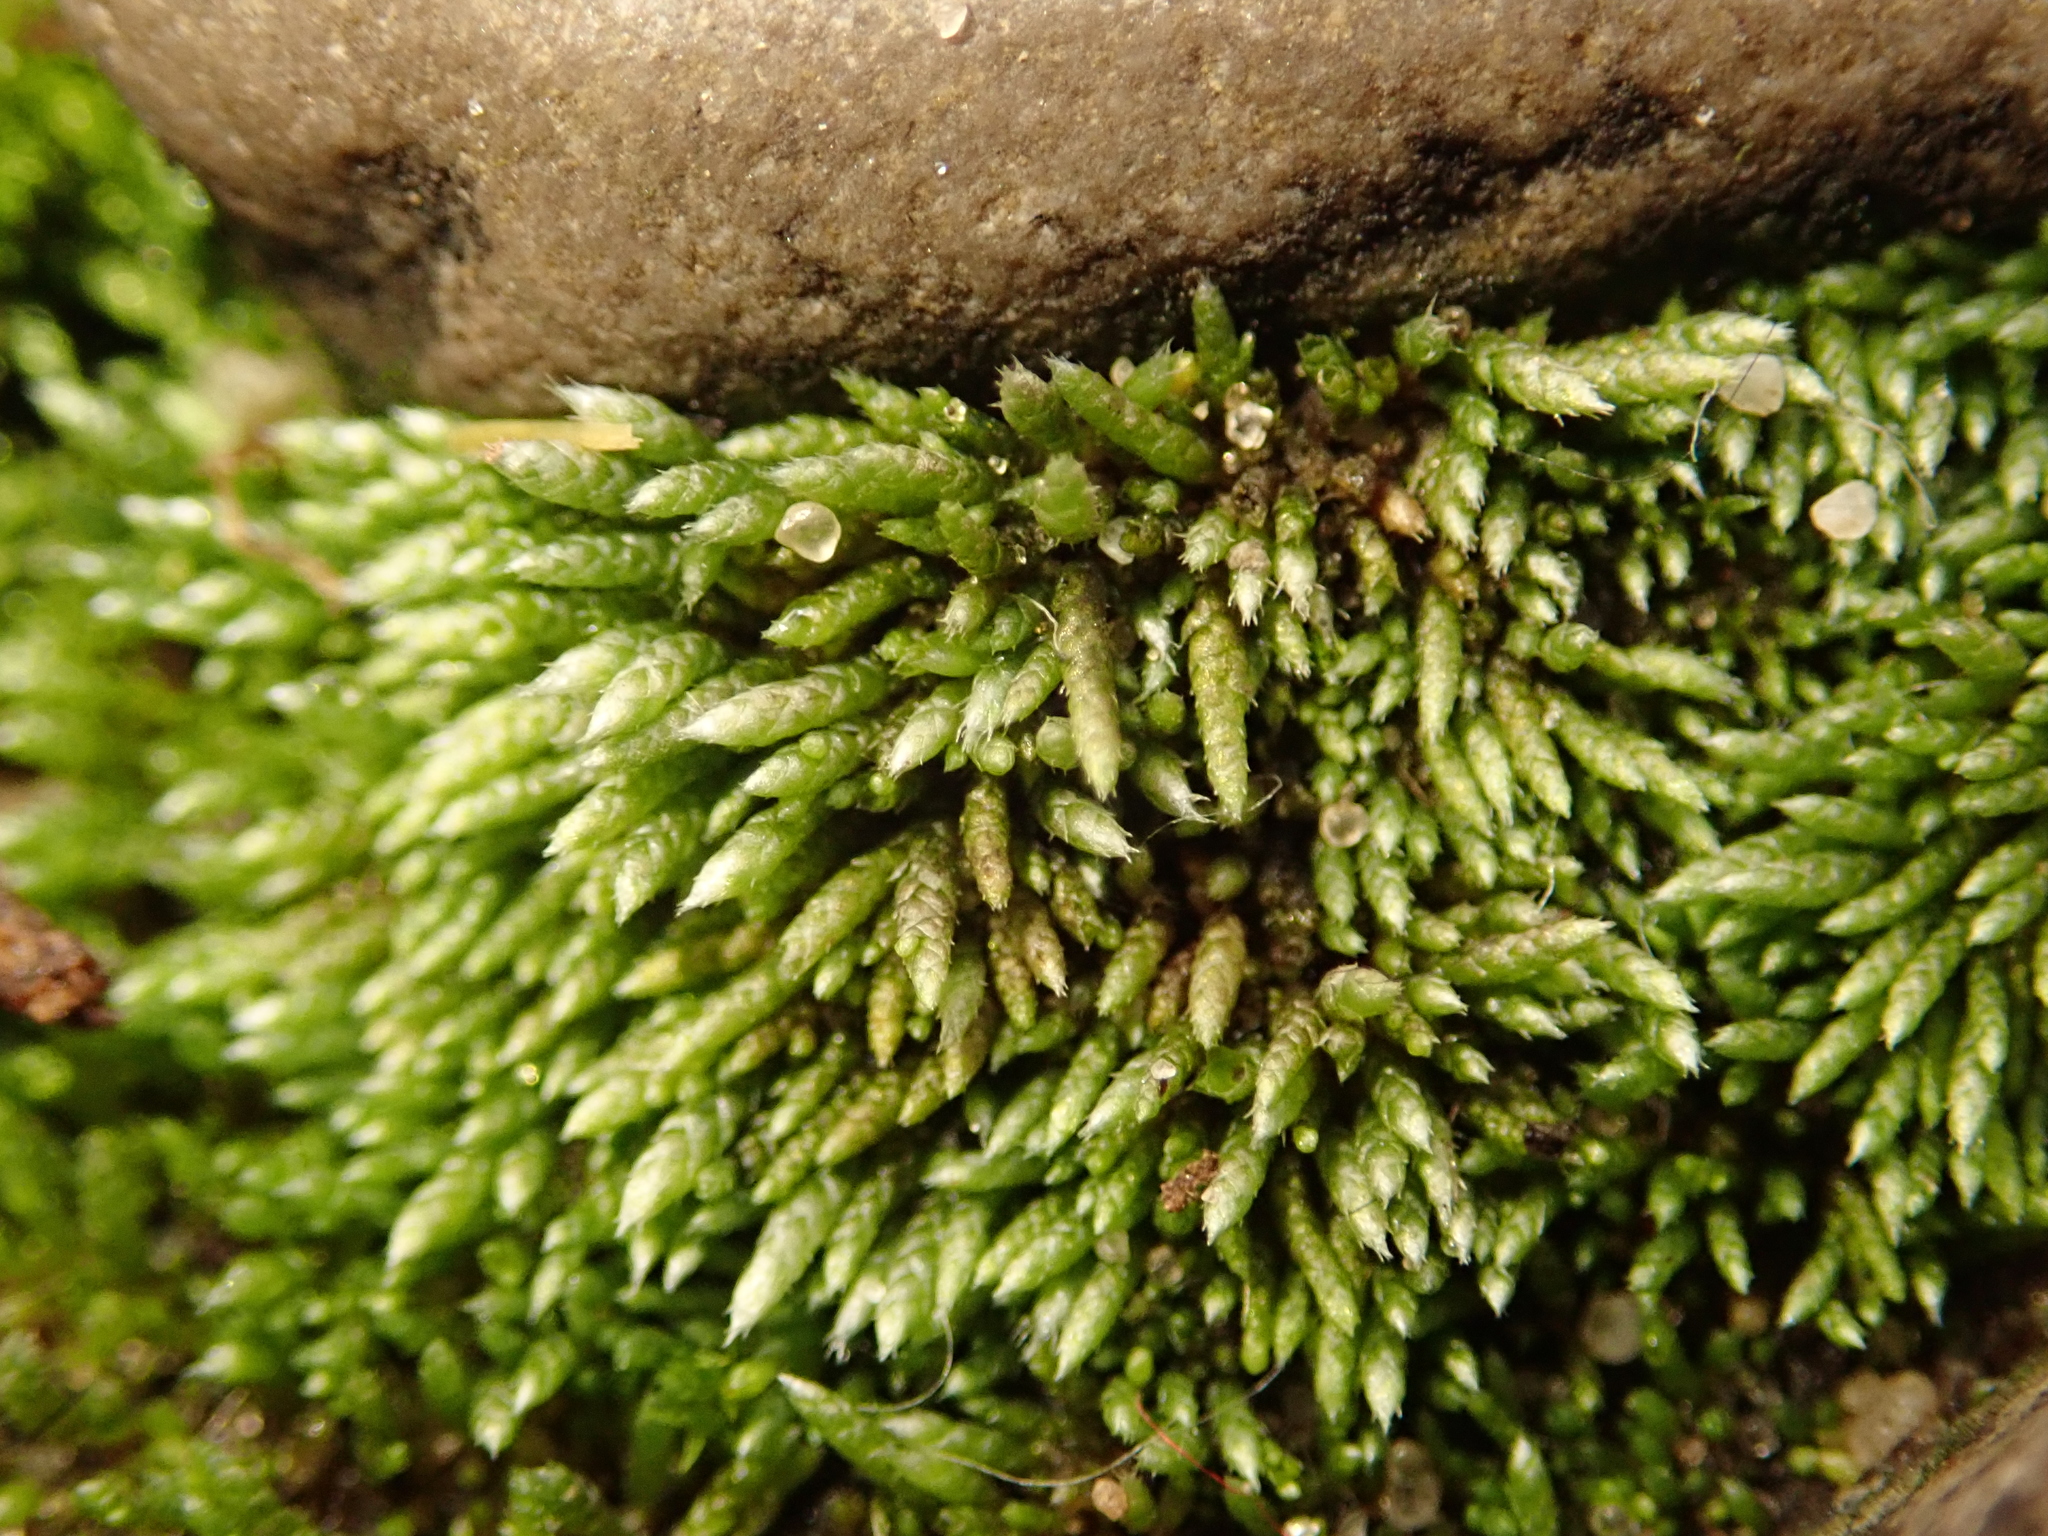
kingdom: Plantae
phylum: Bryophyta
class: Bryopsida
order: Bryales
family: Bryaceae
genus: Bryum
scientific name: Bryum argenteum
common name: Silver-moss
